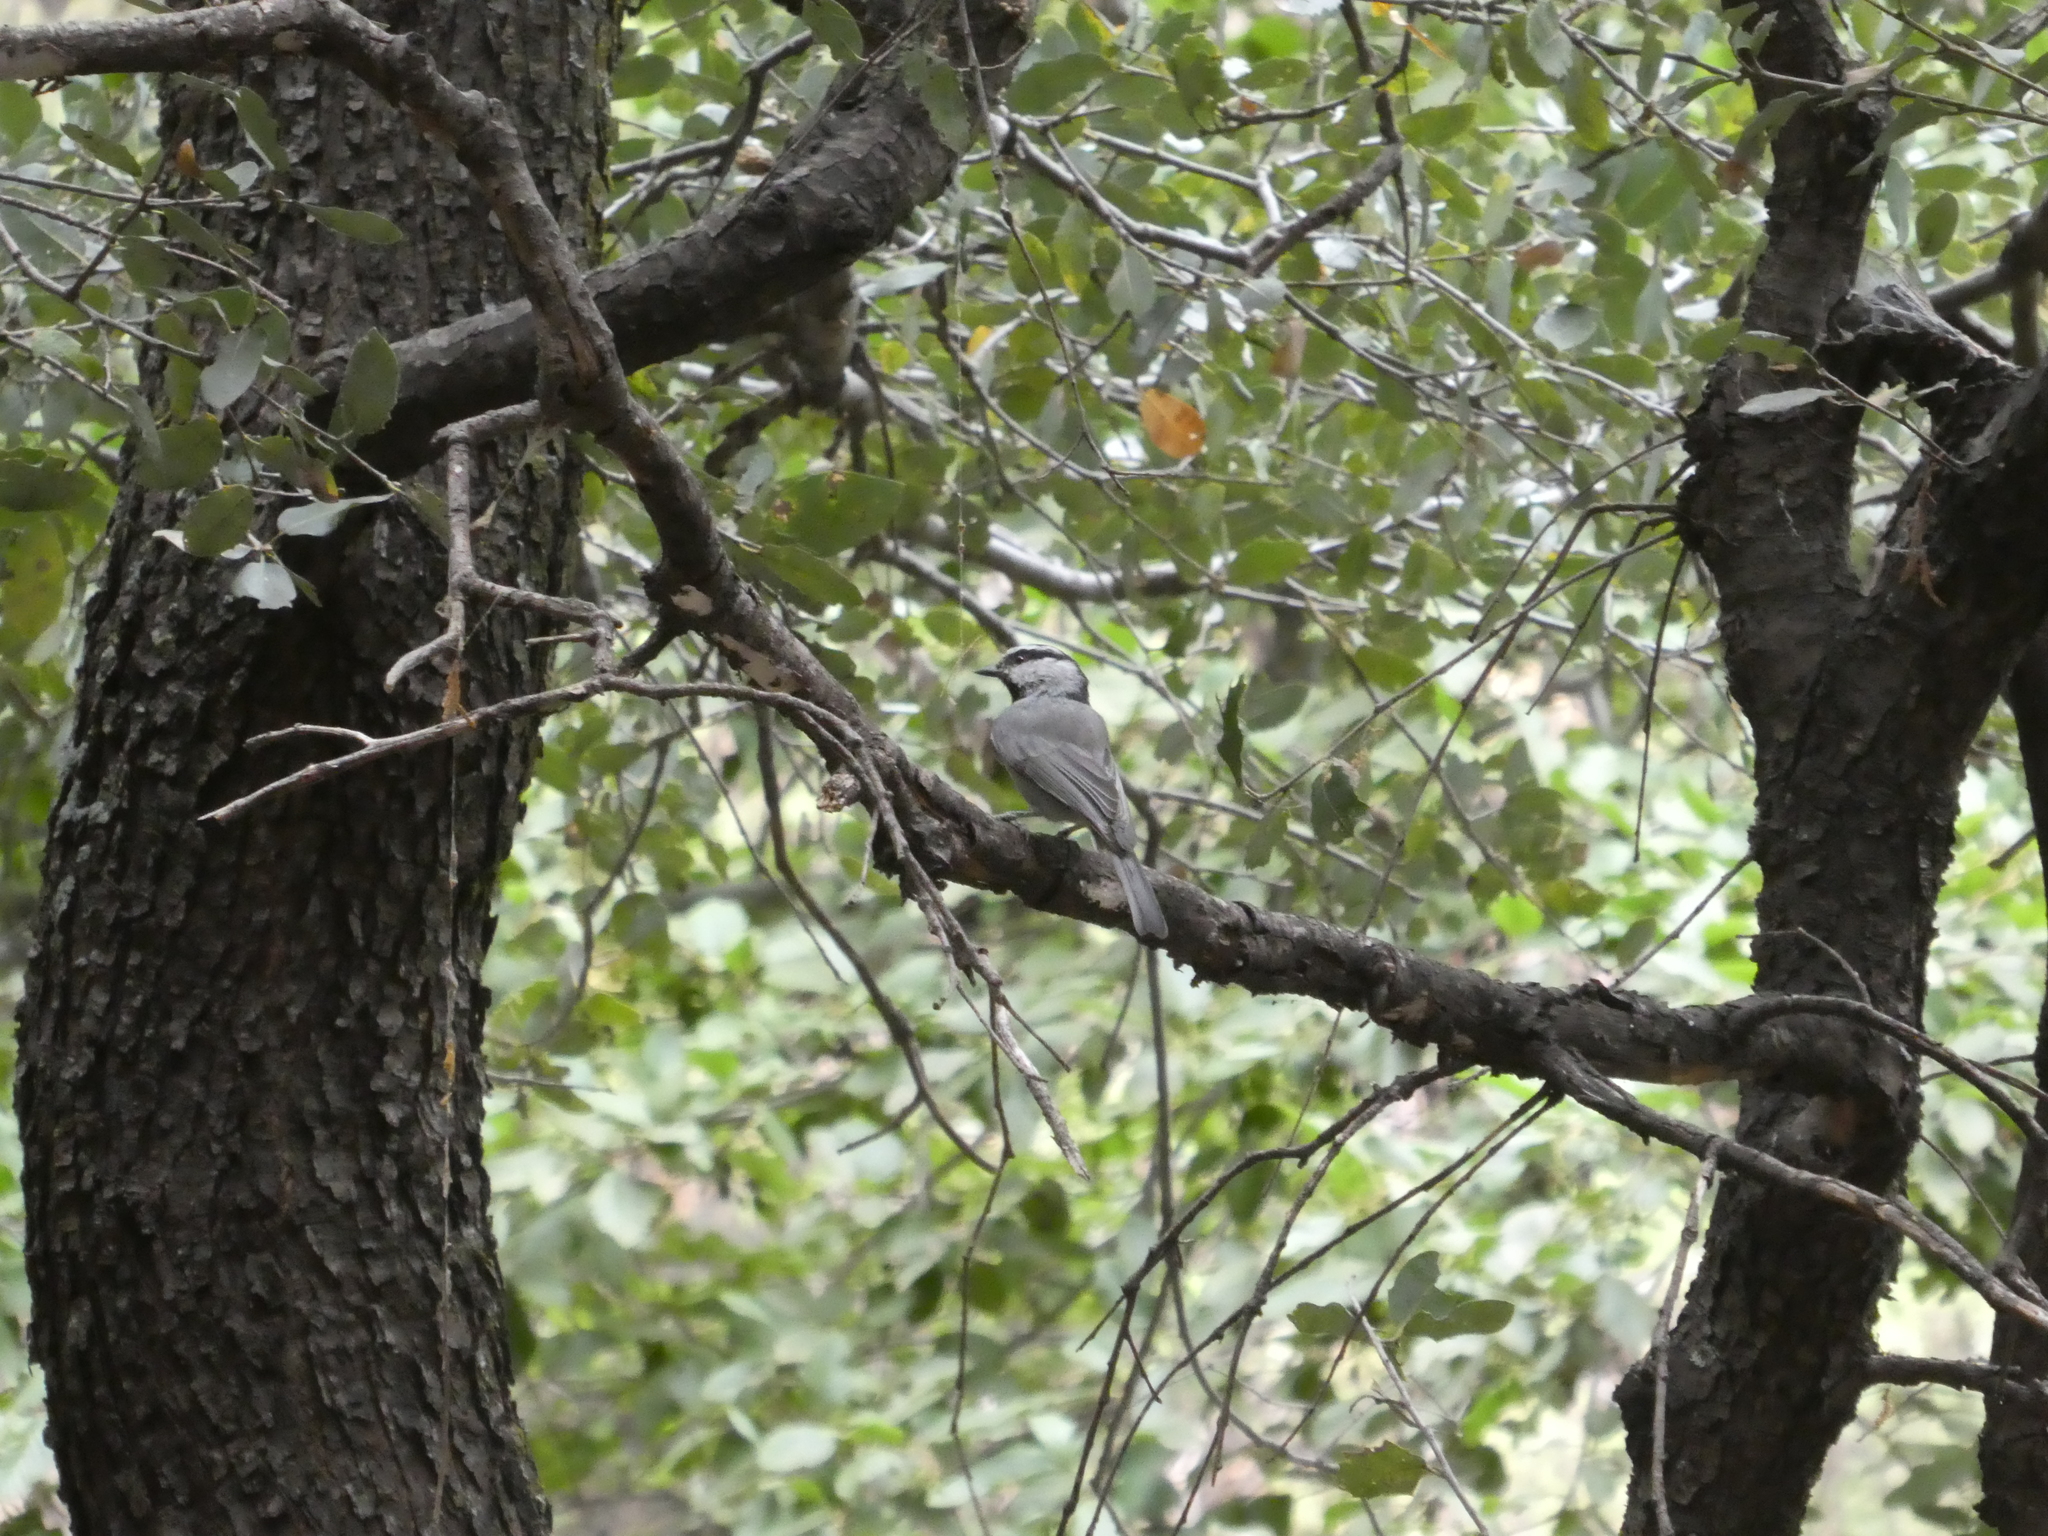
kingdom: Animalia
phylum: Chordata
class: Aves
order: Passeriformes
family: Paridae
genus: Poecile
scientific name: Poecile gambeli
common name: Mountain chickadee
